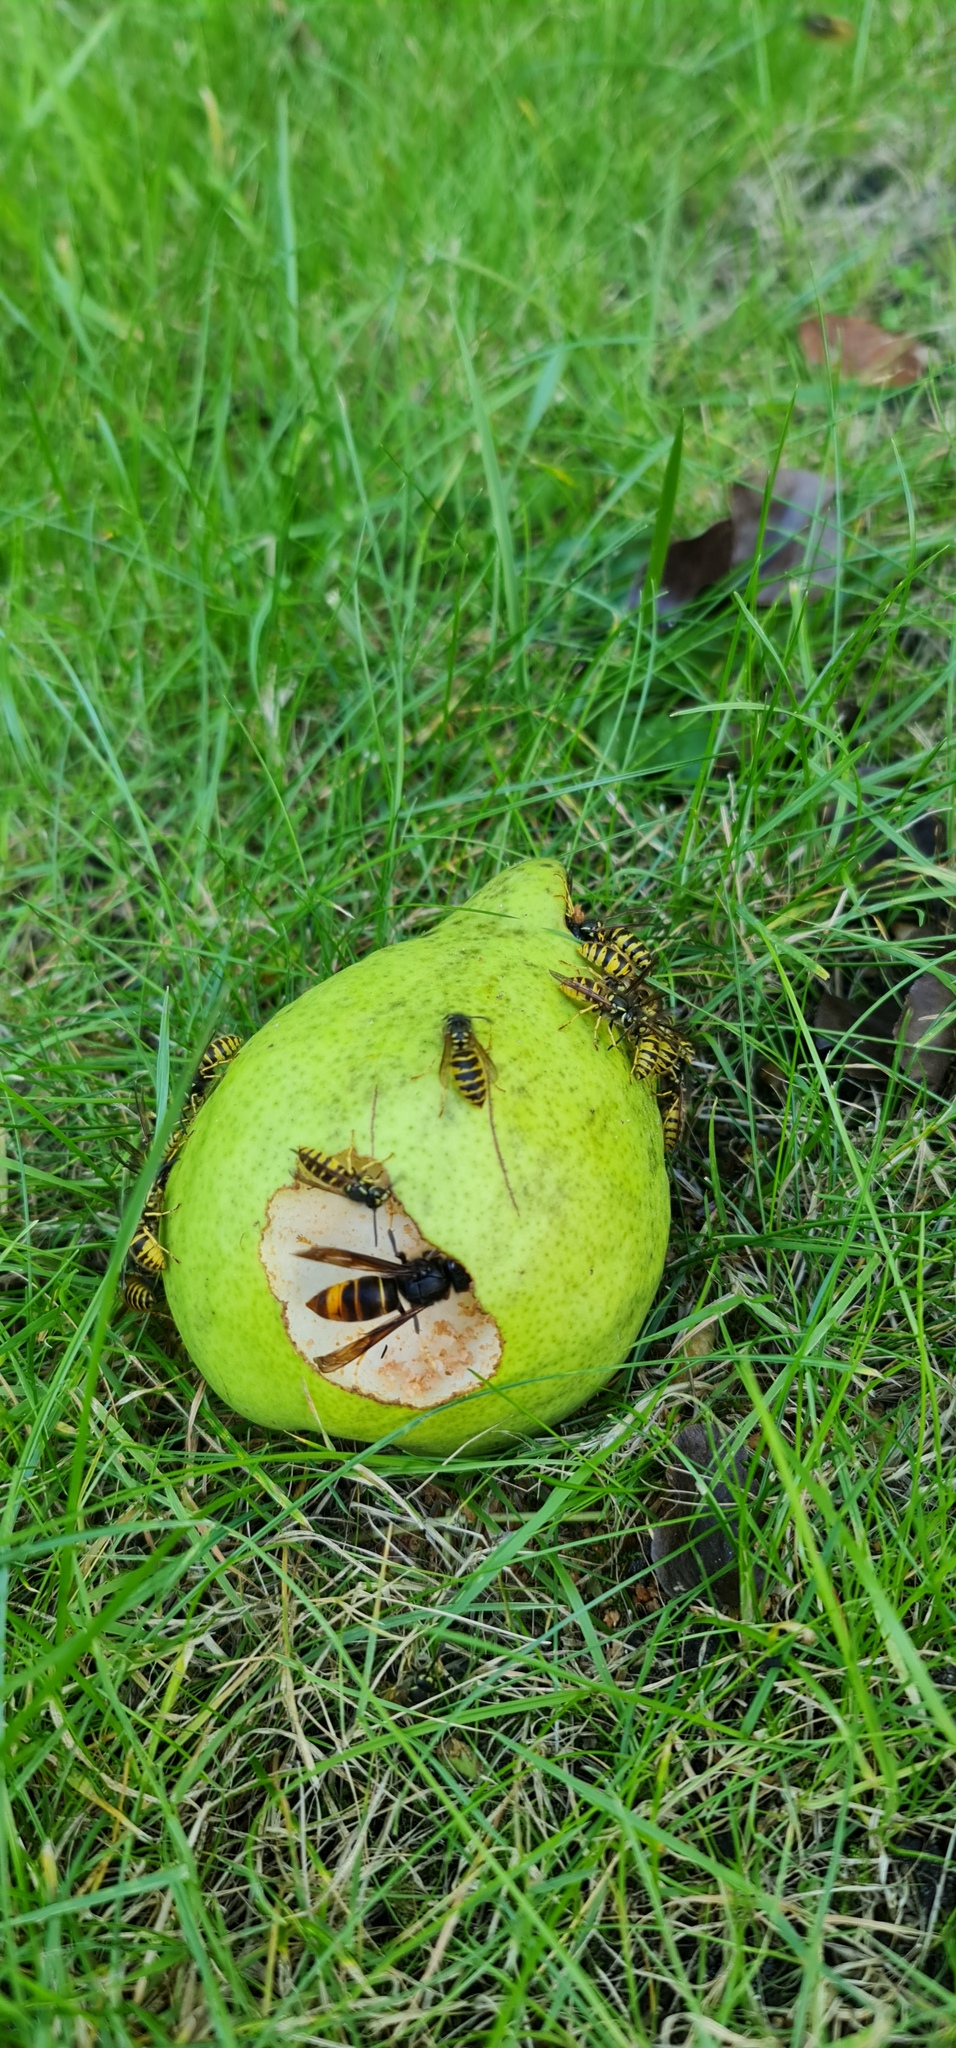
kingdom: Animalia
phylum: Arthropoda
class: Insecta
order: Hymenoptera
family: Vespidae
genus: Vespa
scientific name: Vespa velutina
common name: Asian hornet
